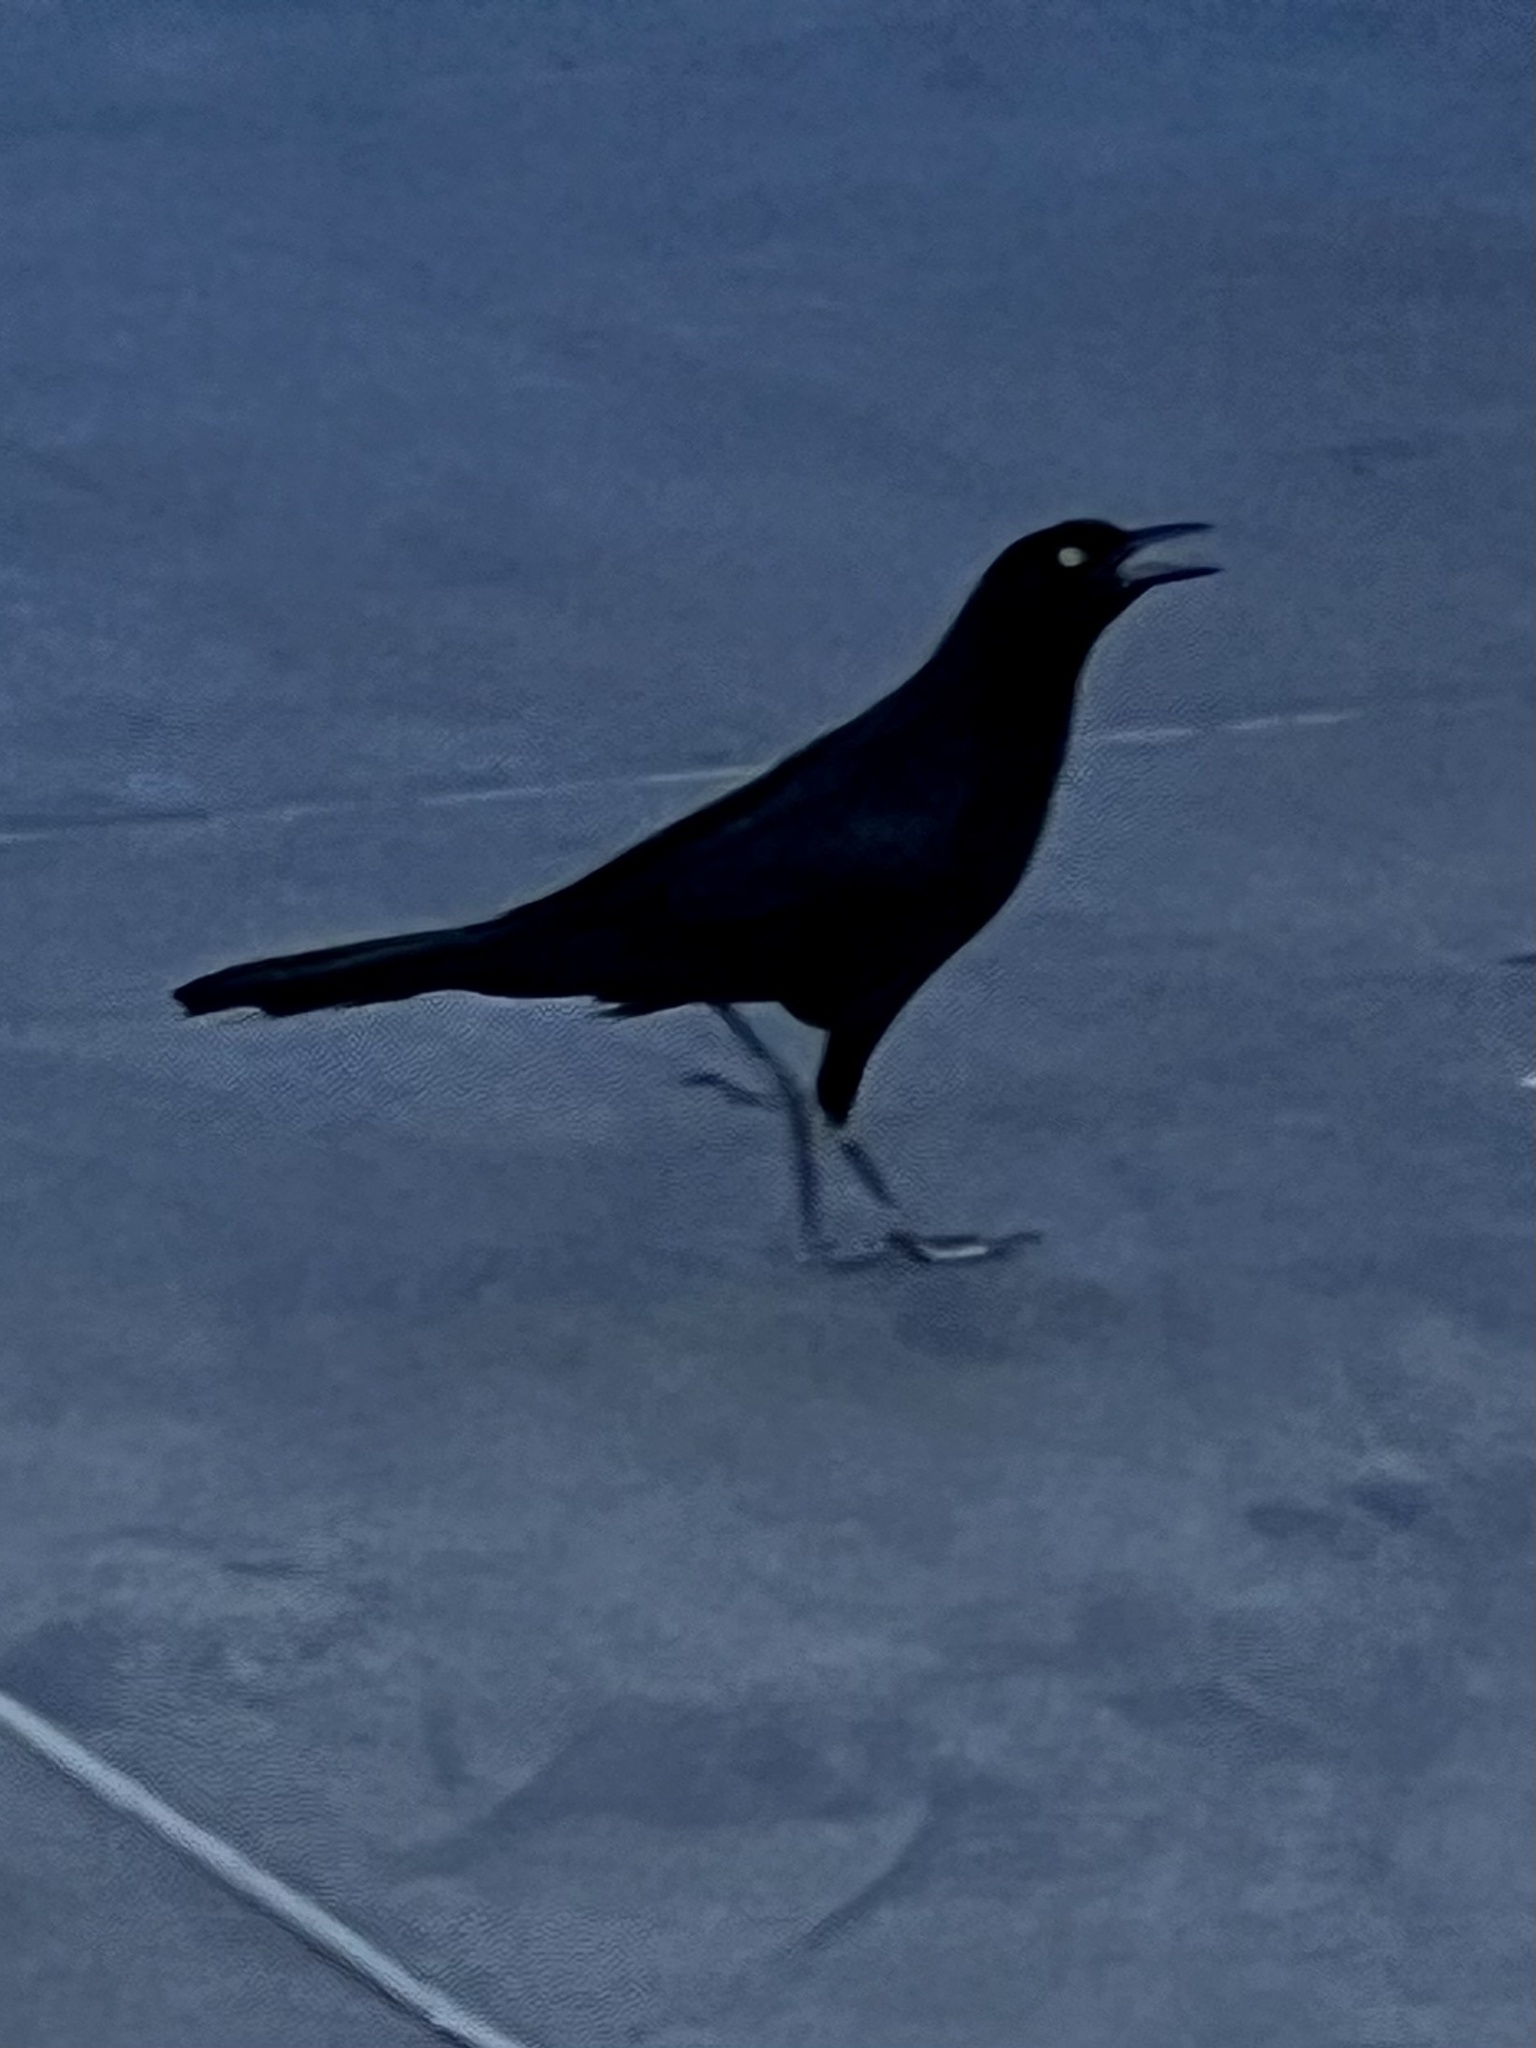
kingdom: Animalia
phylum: Chordata
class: Aves
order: Passeriformes
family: Icteridae
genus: Quiscalus
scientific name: Quiscalus mexicanus
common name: Great-tailed grackle
